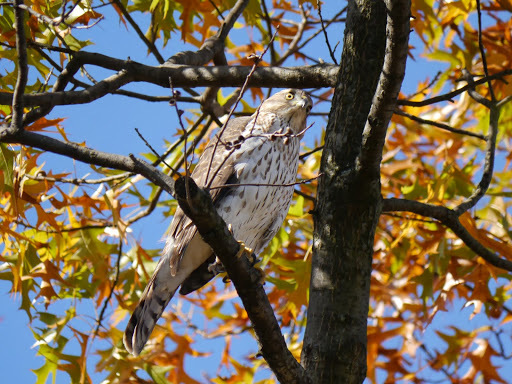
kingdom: Animalia
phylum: Chordata
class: Aves
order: Accipitriformes
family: Accipitridae
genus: Accipiter
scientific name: Accipiter cooperii
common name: Cooper's hawk
